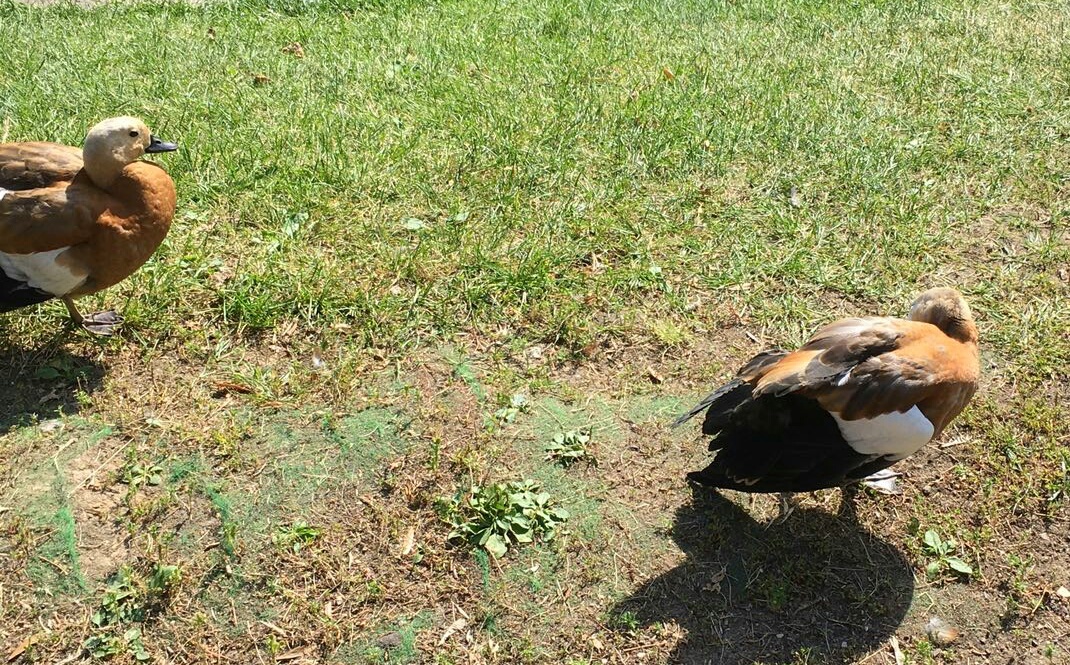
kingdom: Animalia
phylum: Chordata
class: Aves
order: Anseriformes
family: Anatidae
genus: Tadorna
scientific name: Tadorna ferruginea
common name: Ruddy shelduck
